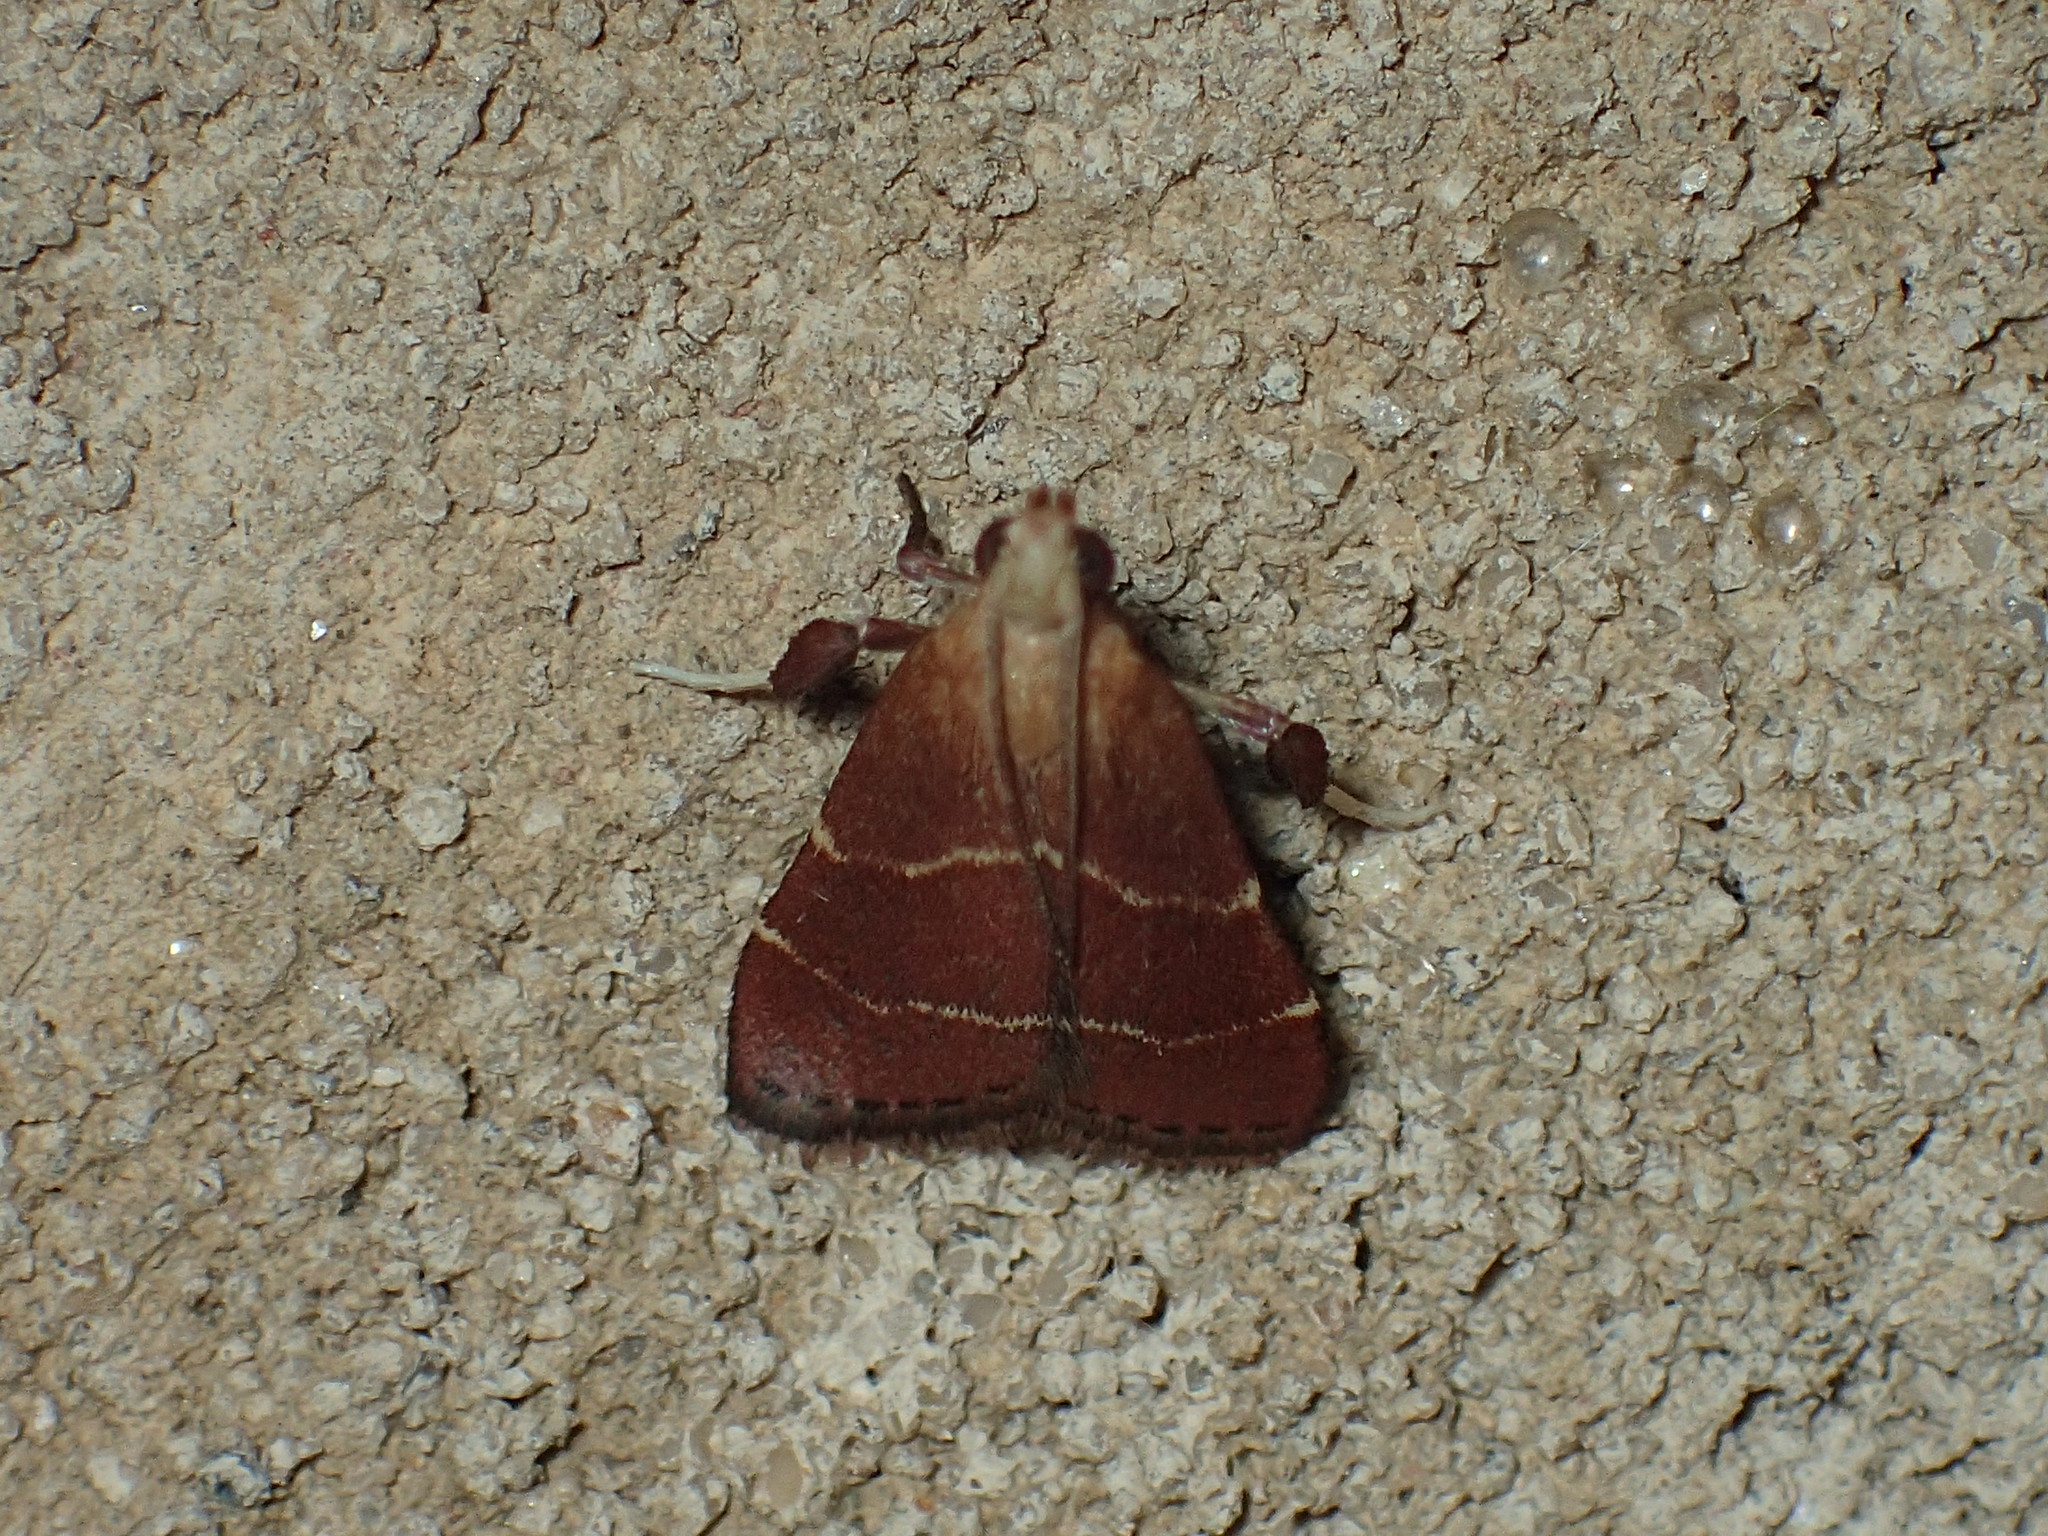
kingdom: Animalia
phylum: Arthropoda
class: Insecta
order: Lepidoptera
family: Pyralidae
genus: Arta
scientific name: Arta statalis
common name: Posturing arta moth
